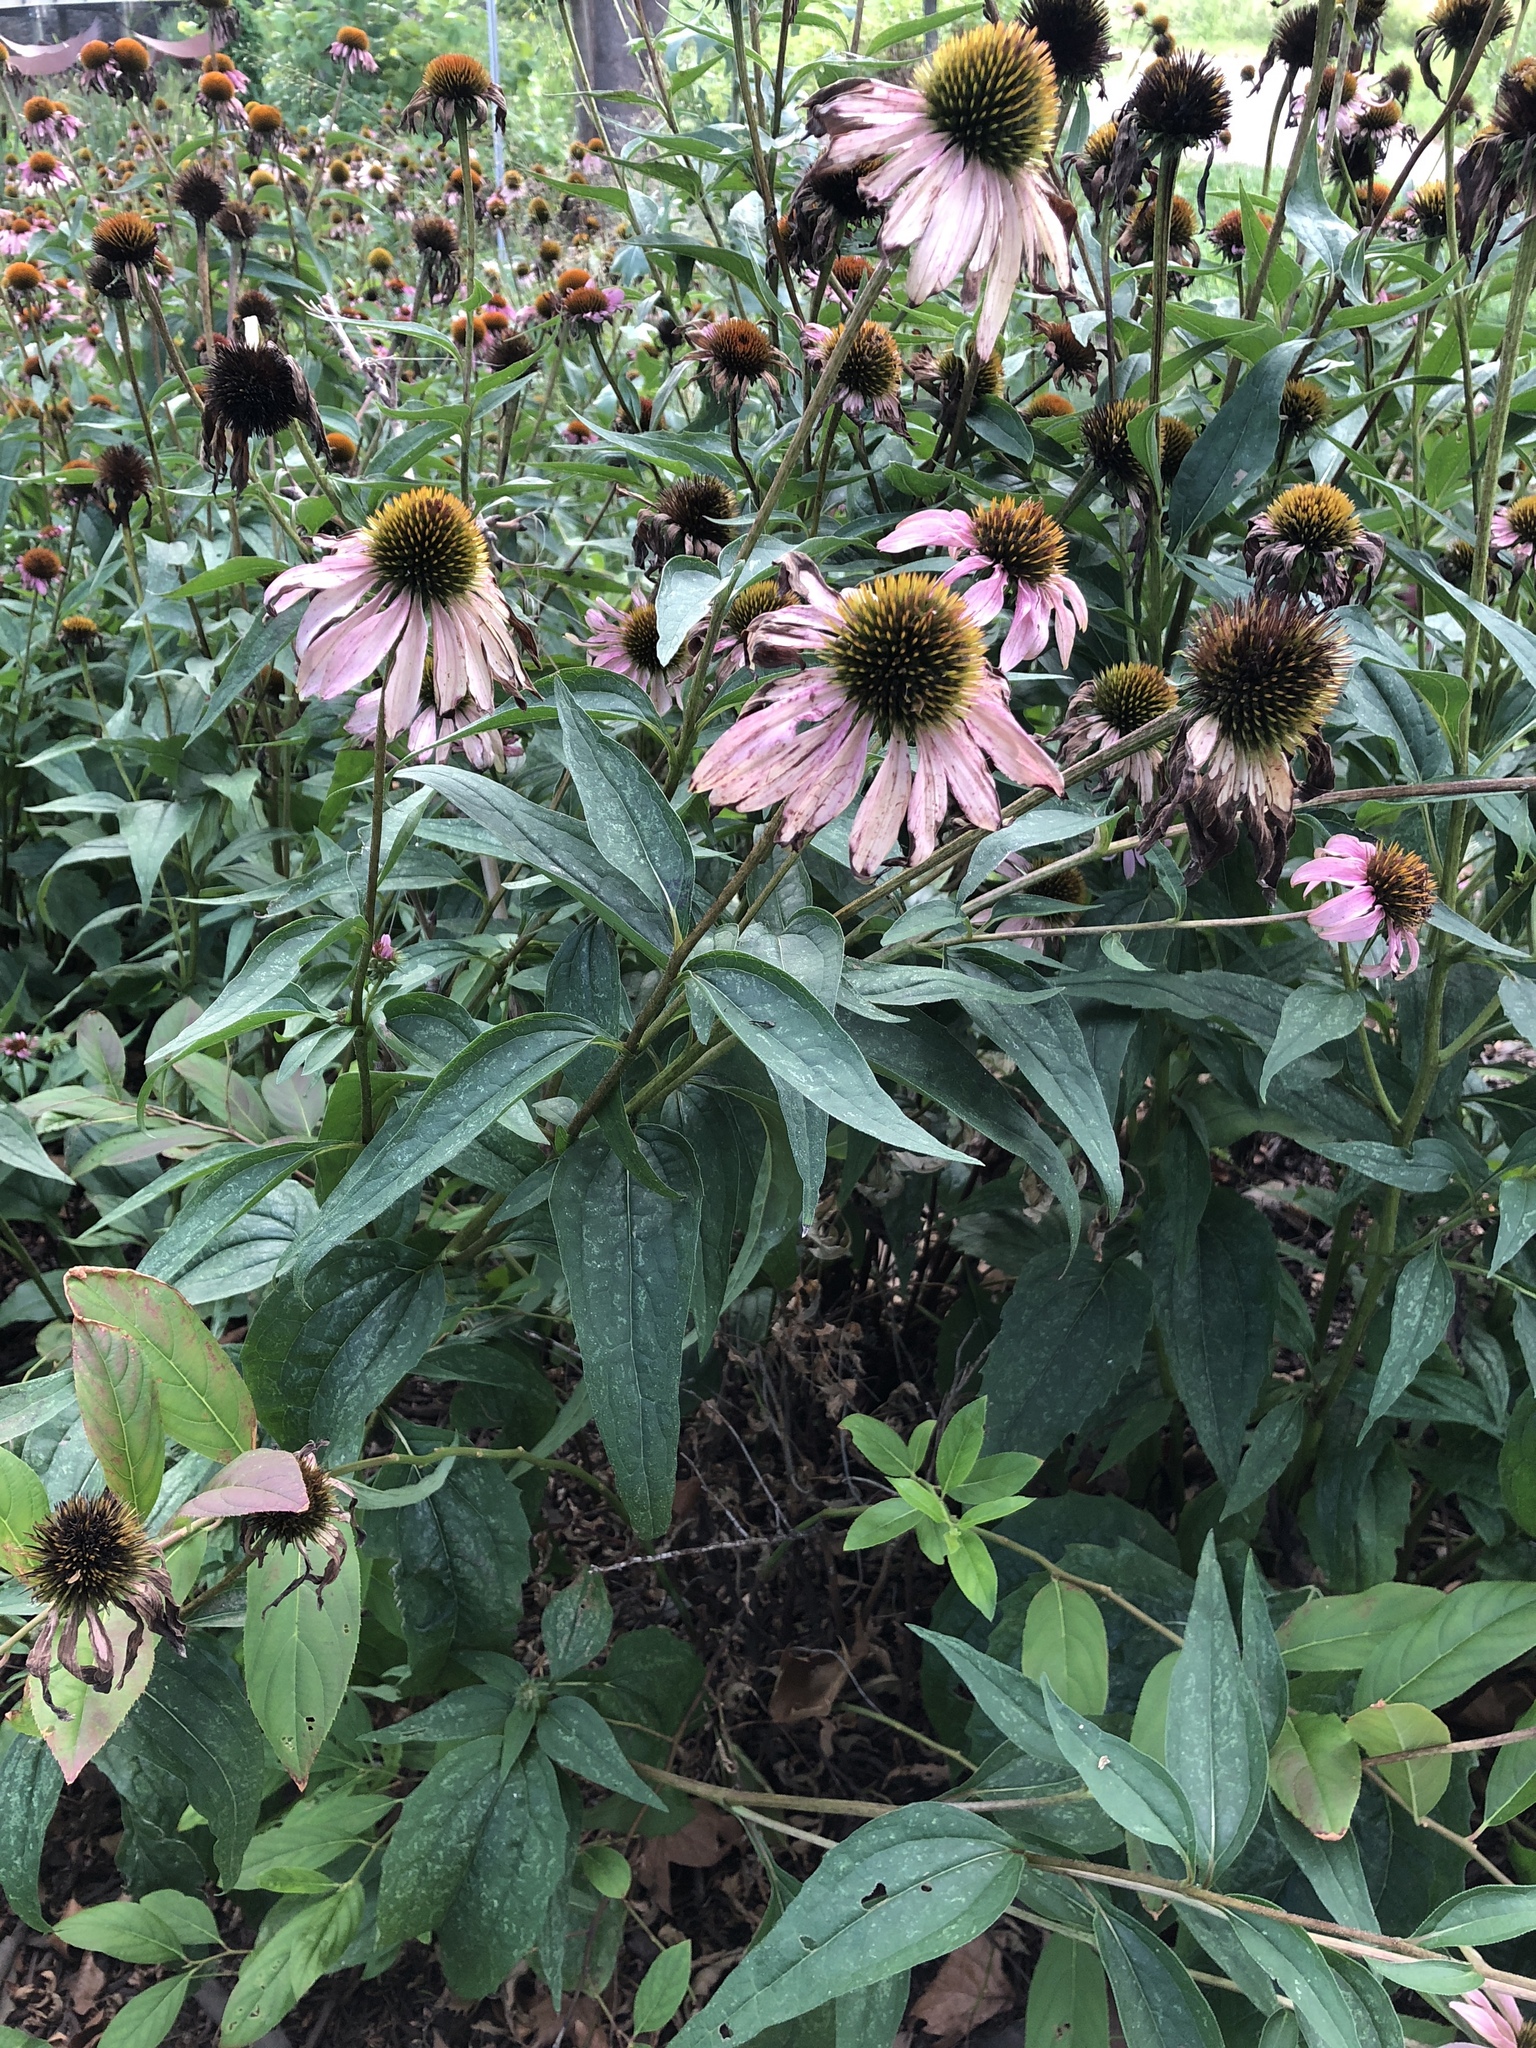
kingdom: Plantae
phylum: Tracheophyta
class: Magnoliopsida
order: Asterales
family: Asteraceae
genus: Echinacea
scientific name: Echinacea purpurea
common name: Broad-leaved purple coneflower
